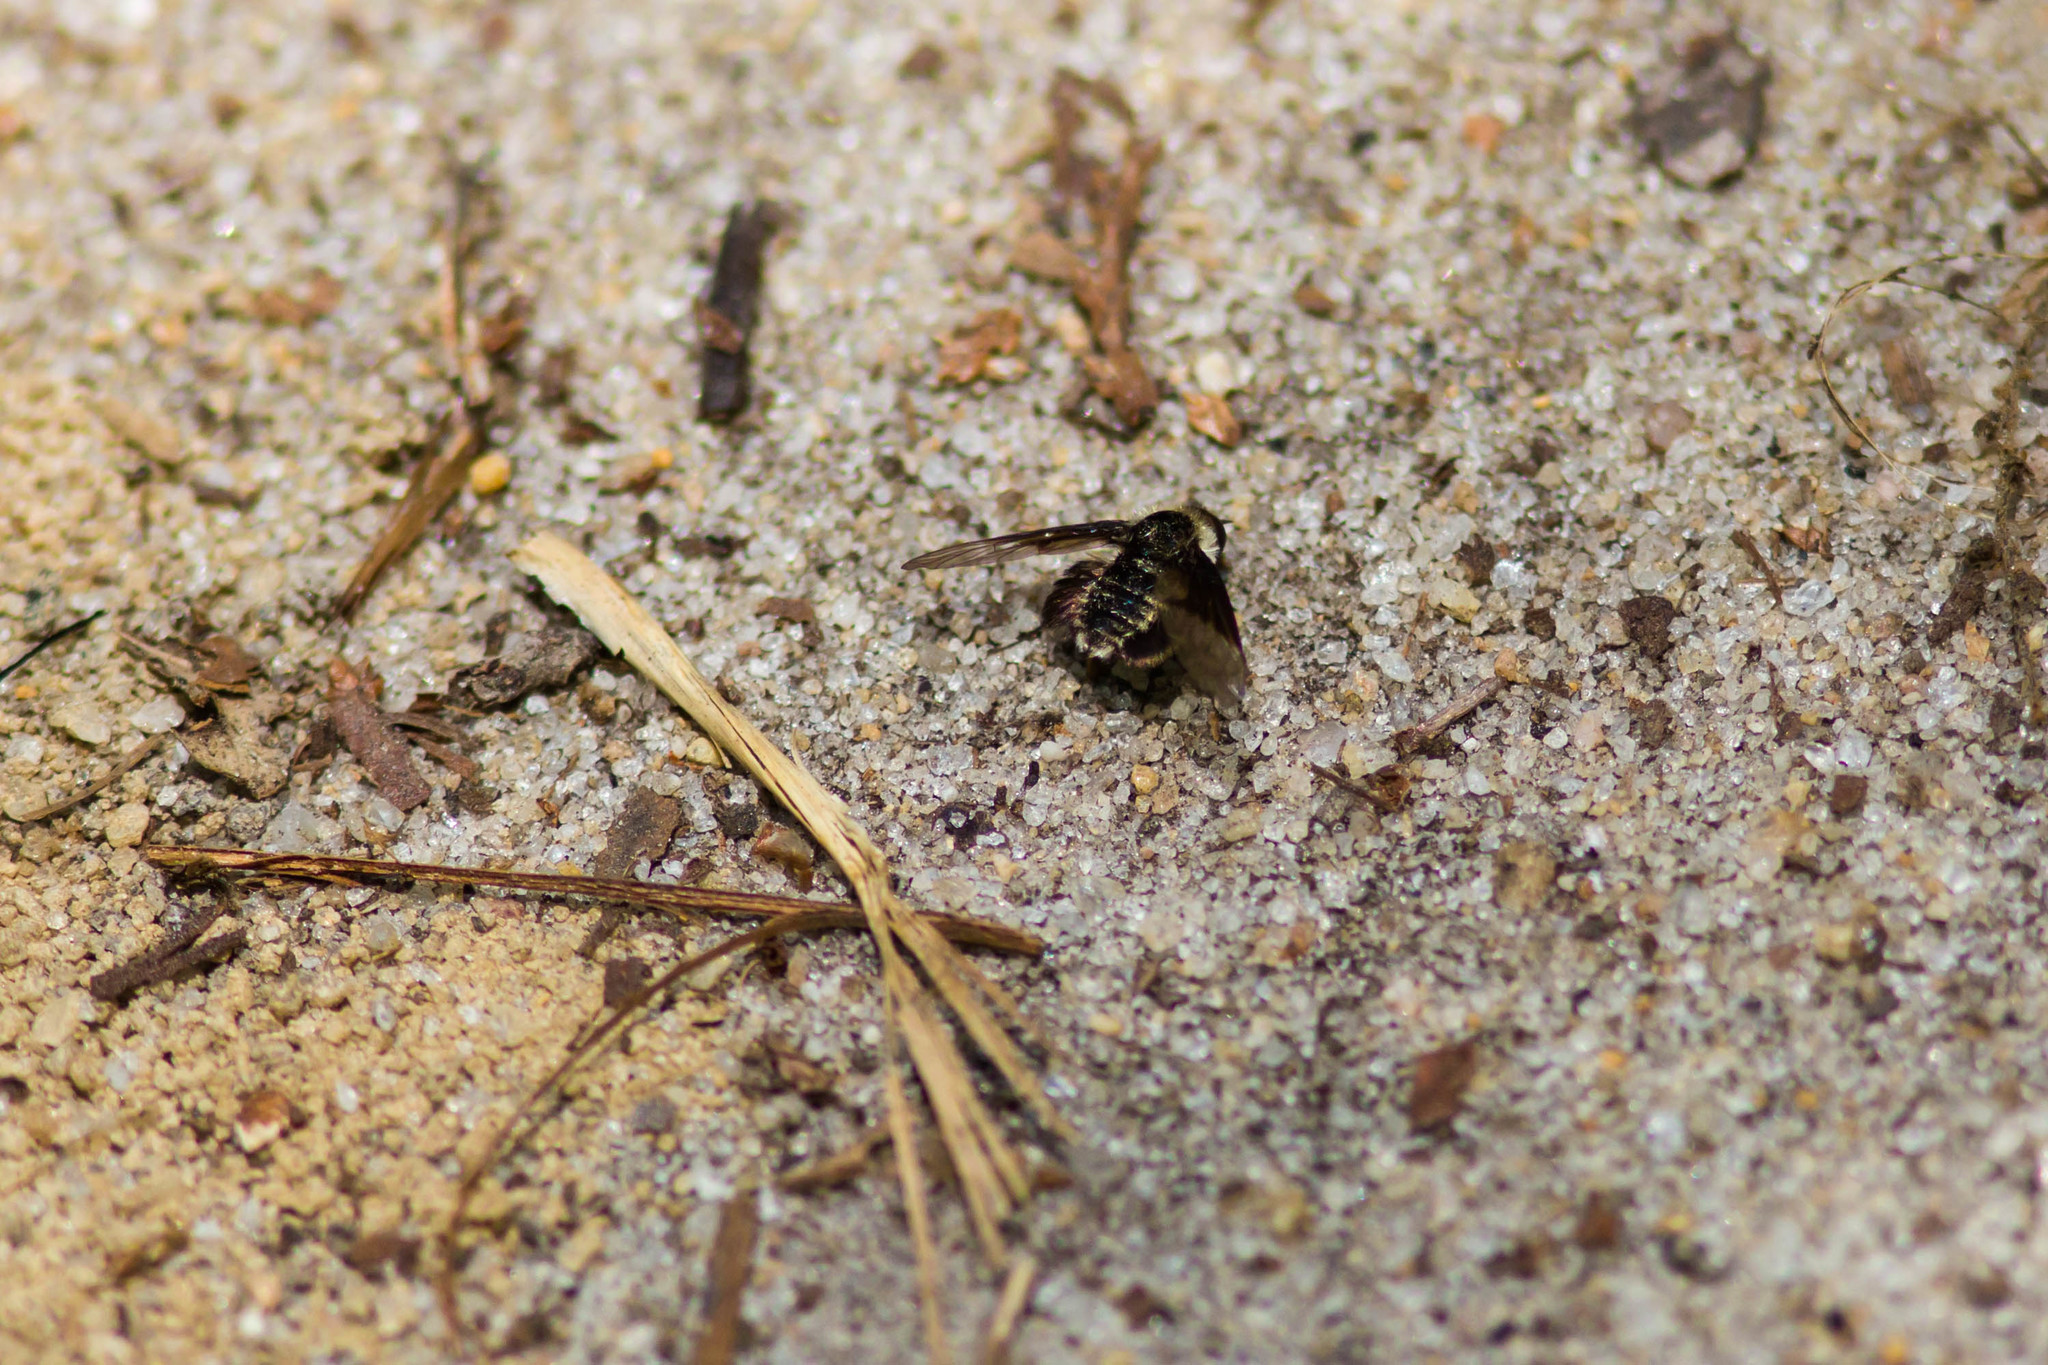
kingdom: Animalia
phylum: Arthropoda
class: Insecta
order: Diptera
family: Bombyliidae
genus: Ogcodocera
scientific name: Ogcodocera leucoprocta
